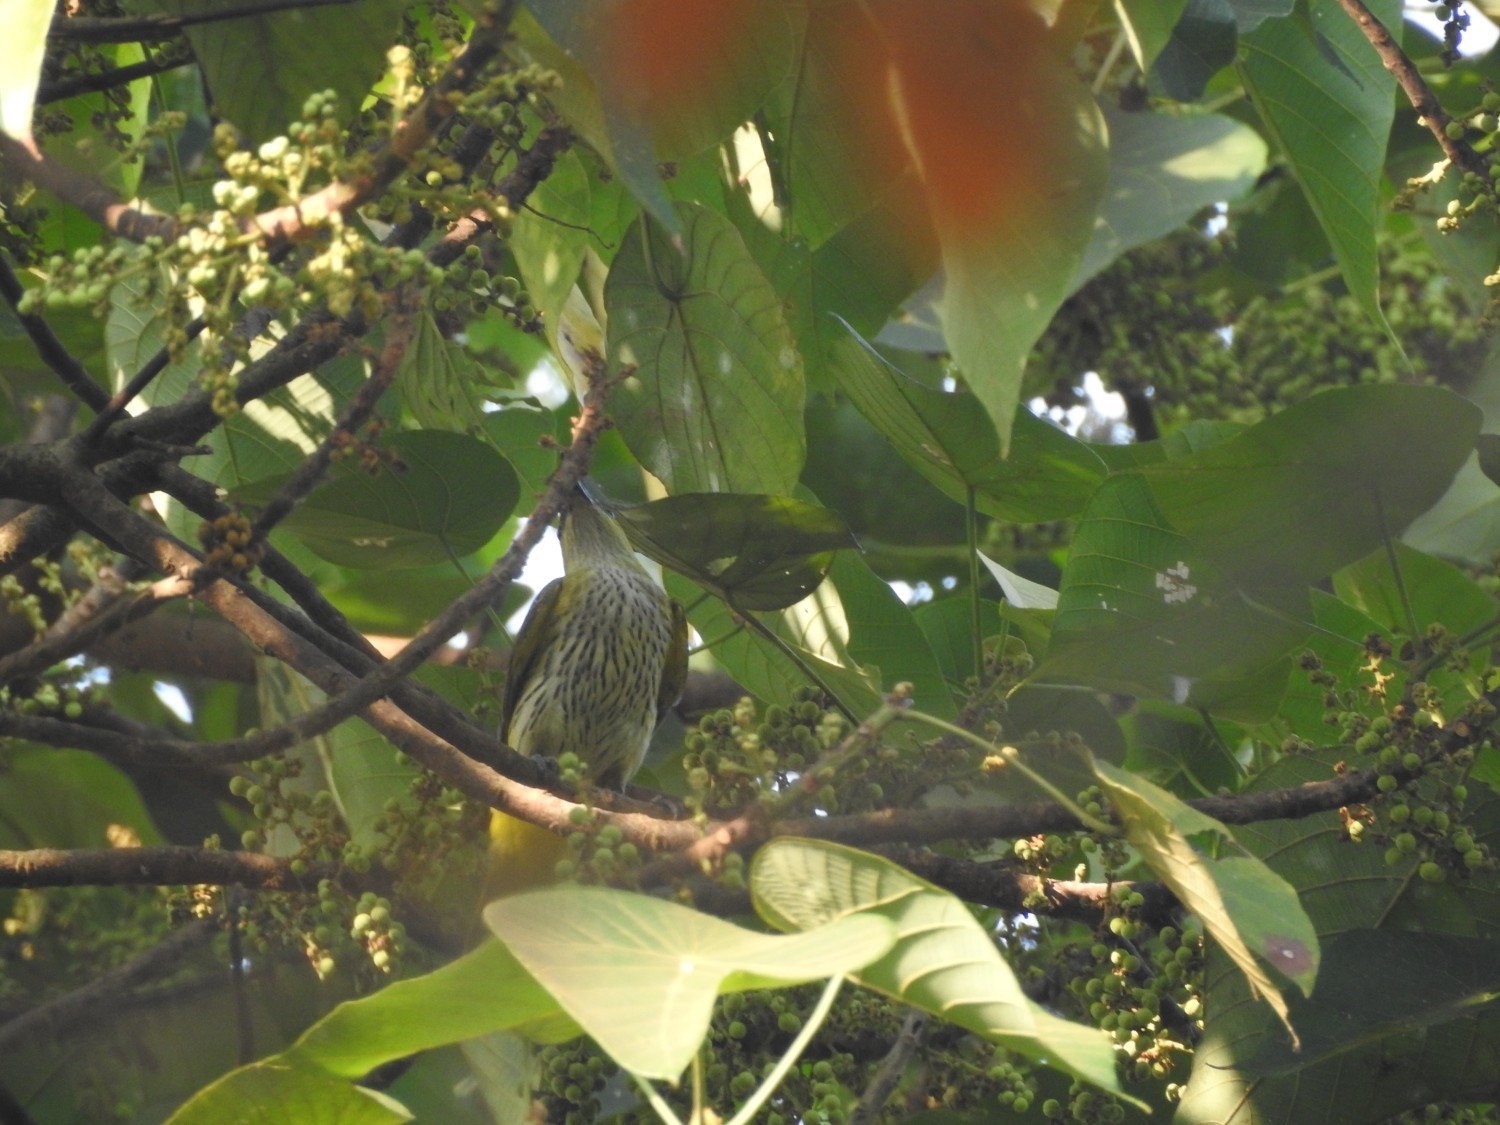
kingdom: Animalia
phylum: Chordata
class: Aves
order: Passeriformes
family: Oriolidae
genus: Oriolus
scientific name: Oriolus kundoo
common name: Indian golden oriole
